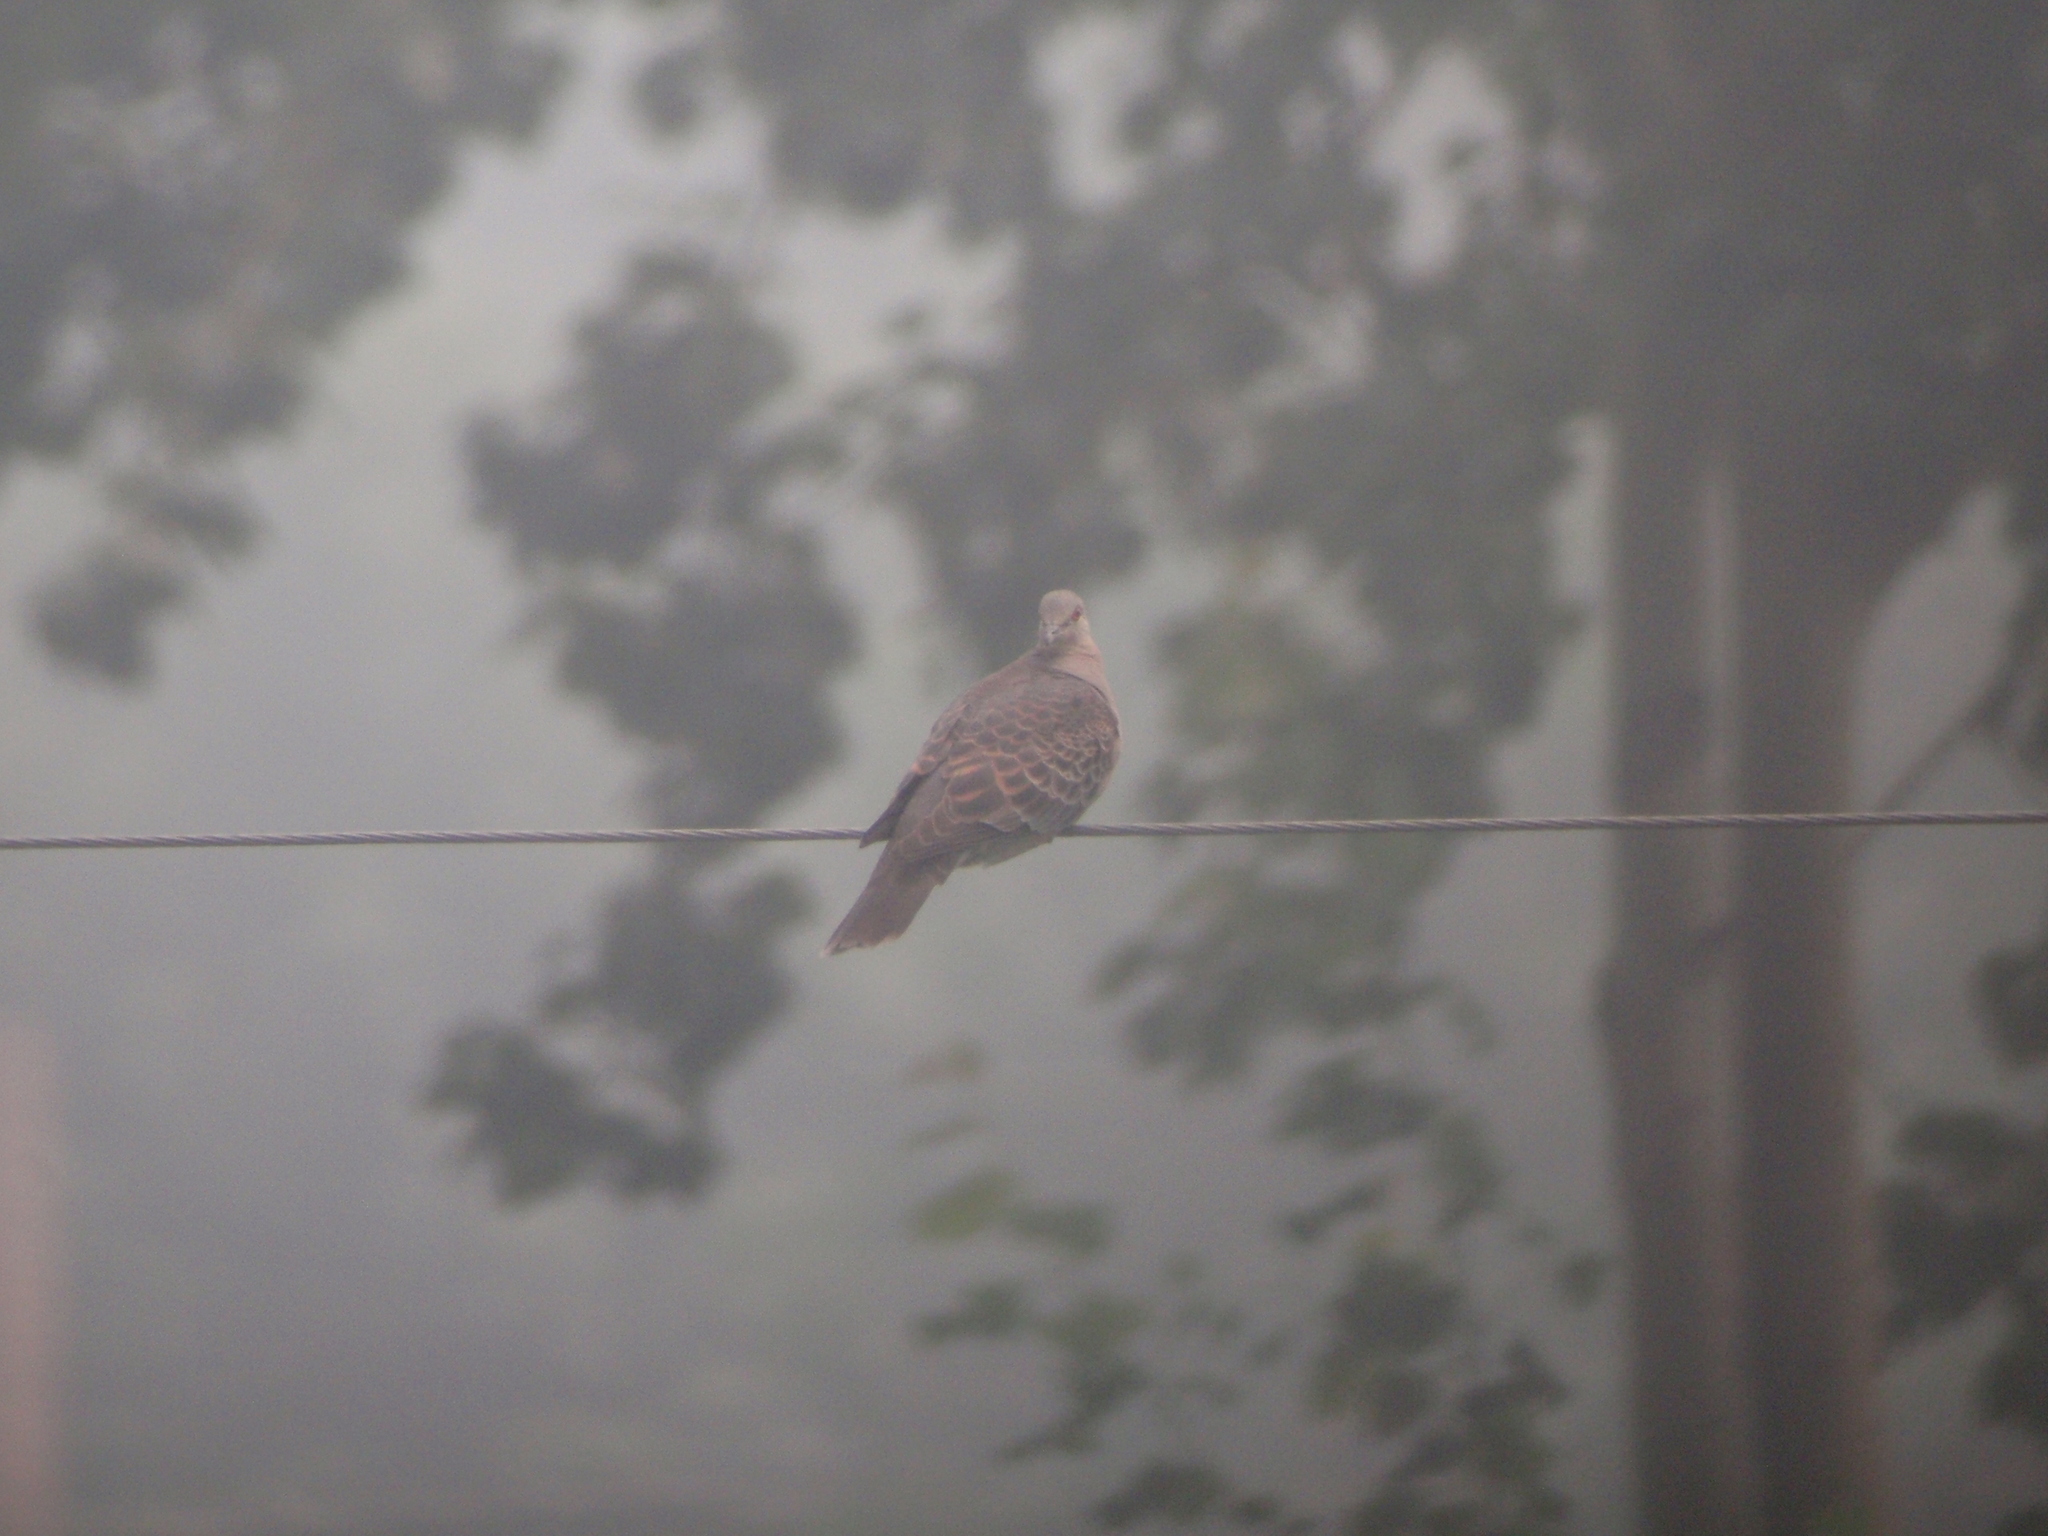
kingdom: Animalia
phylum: Chordata
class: Aves
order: Columbiformes
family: Columbidae
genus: Streptopelia
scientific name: Streptopelia orientalis
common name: Oriental turtle dove
